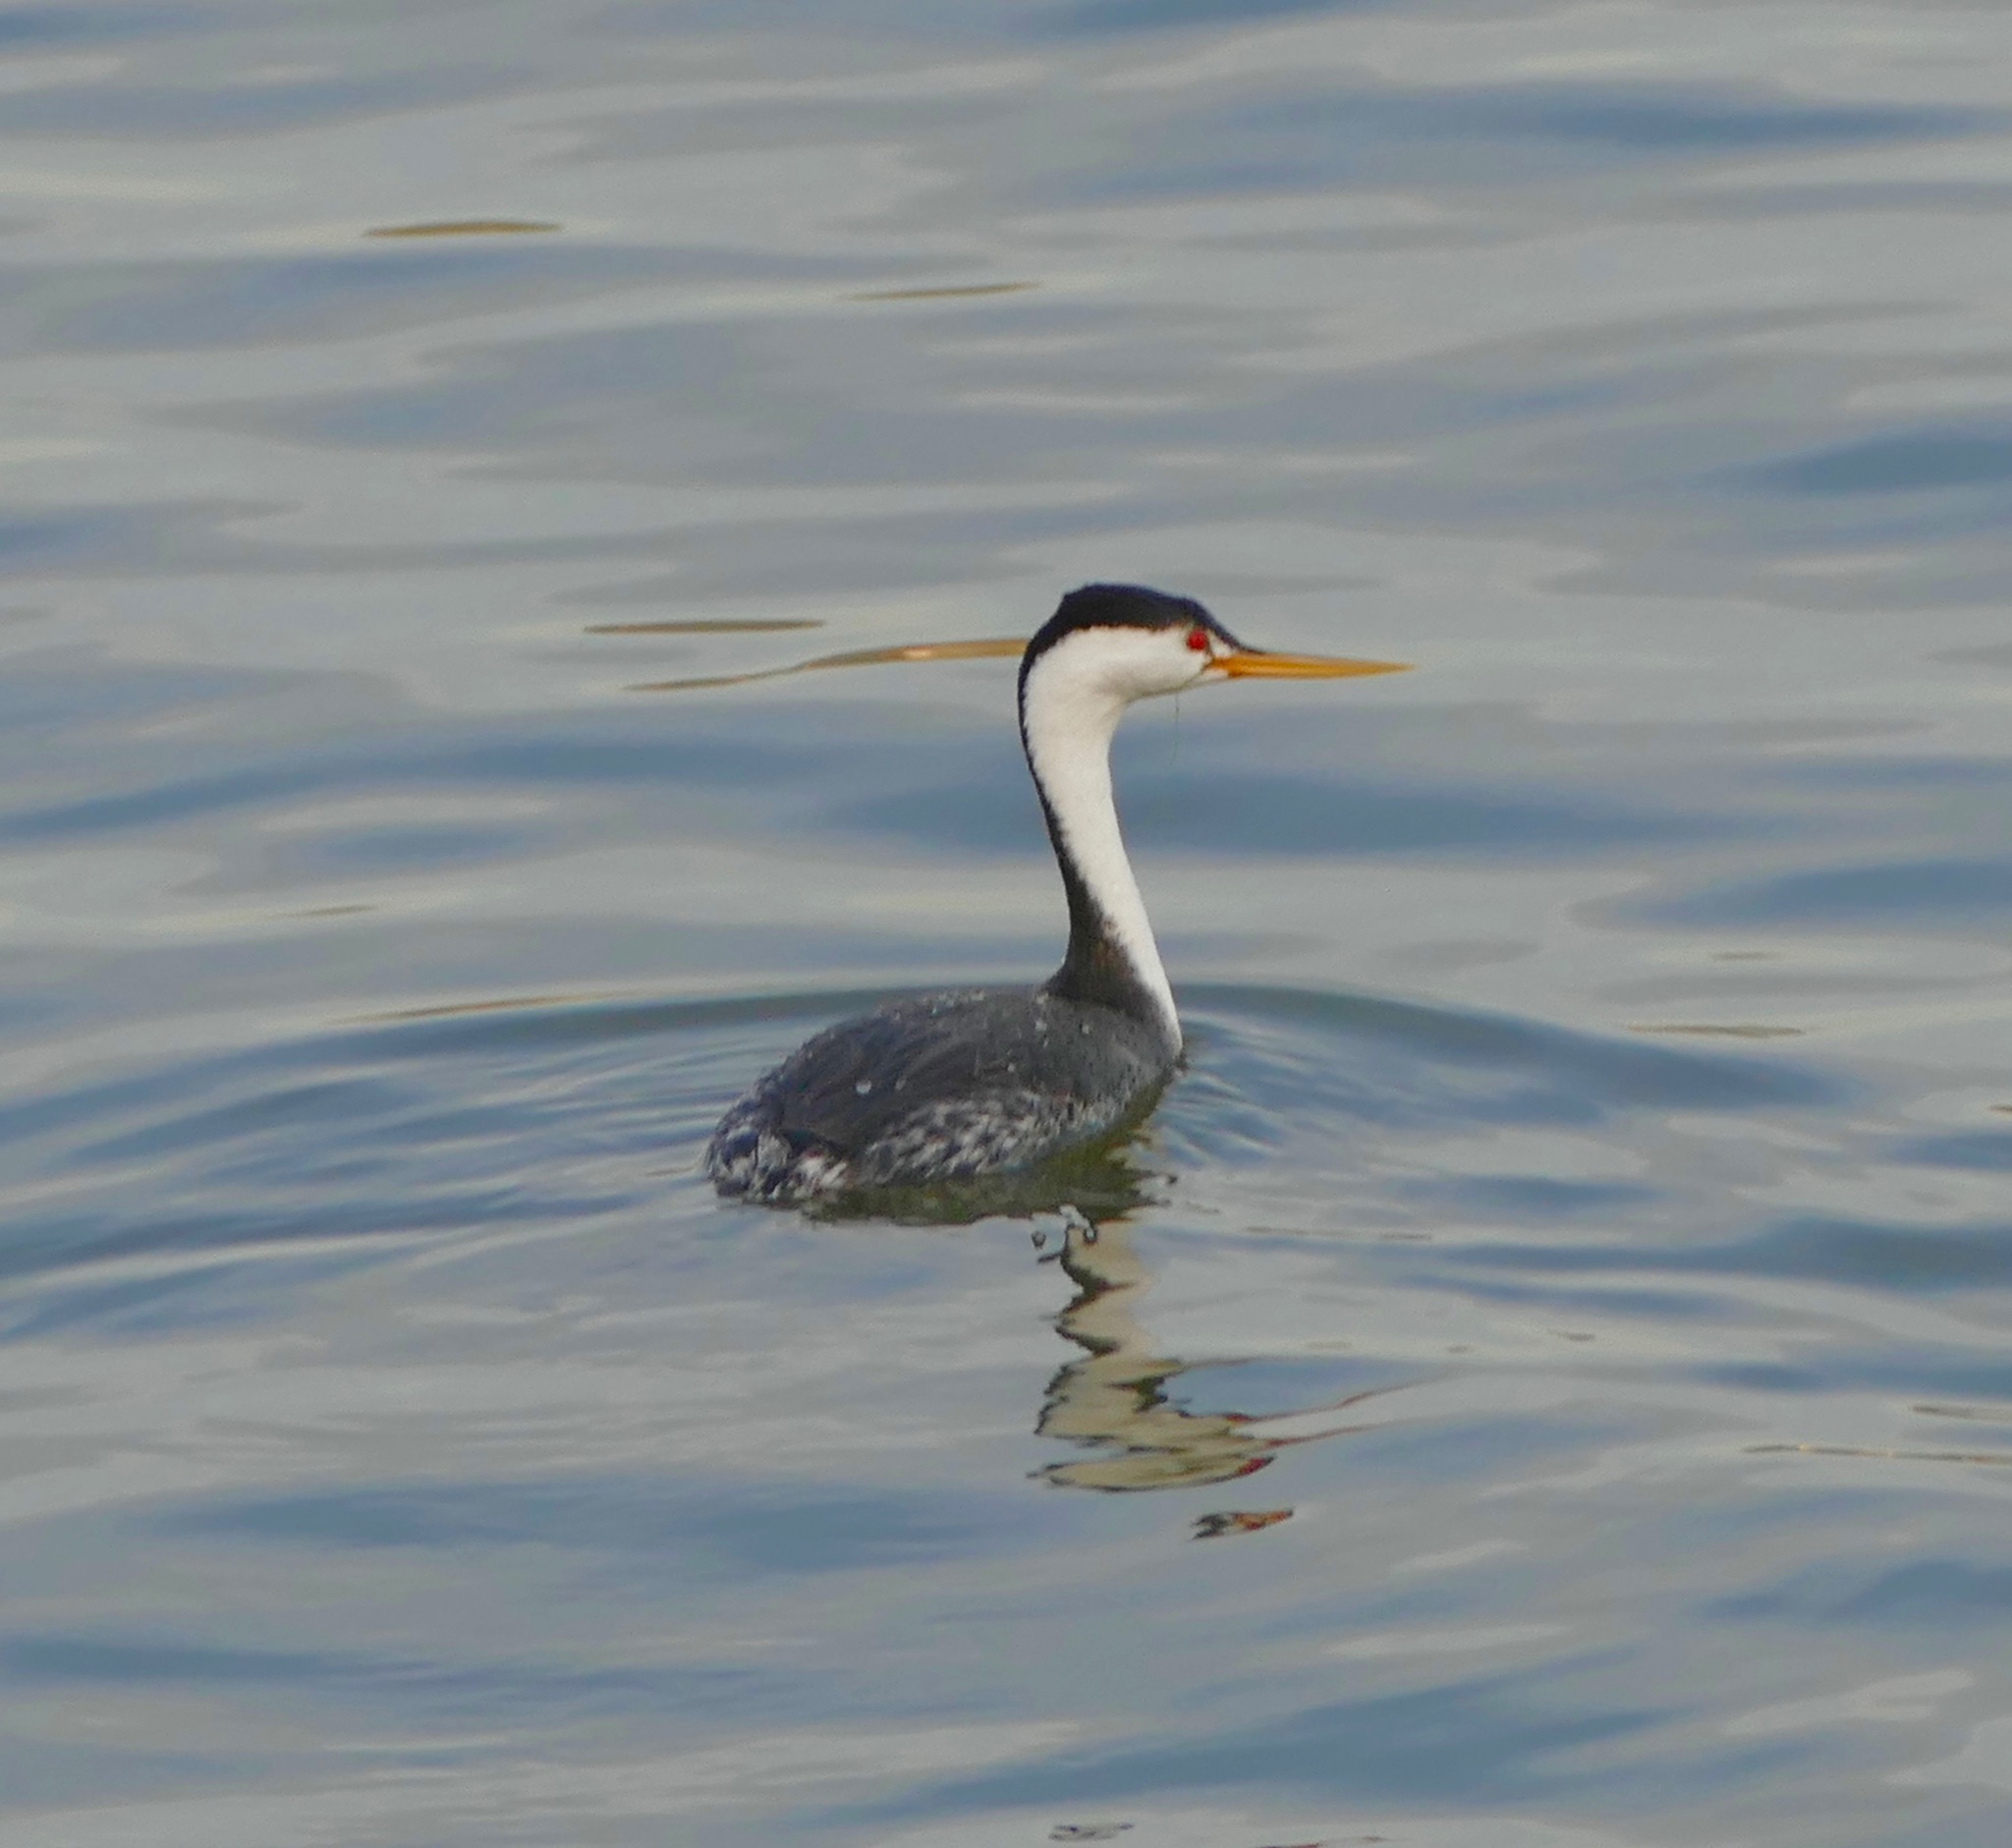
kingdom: Animalia
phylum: Chordata
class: Aves
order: Podicipediformes
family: Podicipedidae
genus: Aechmophorus
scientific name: Aechmophorus clarkii
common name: Clark's grebe
